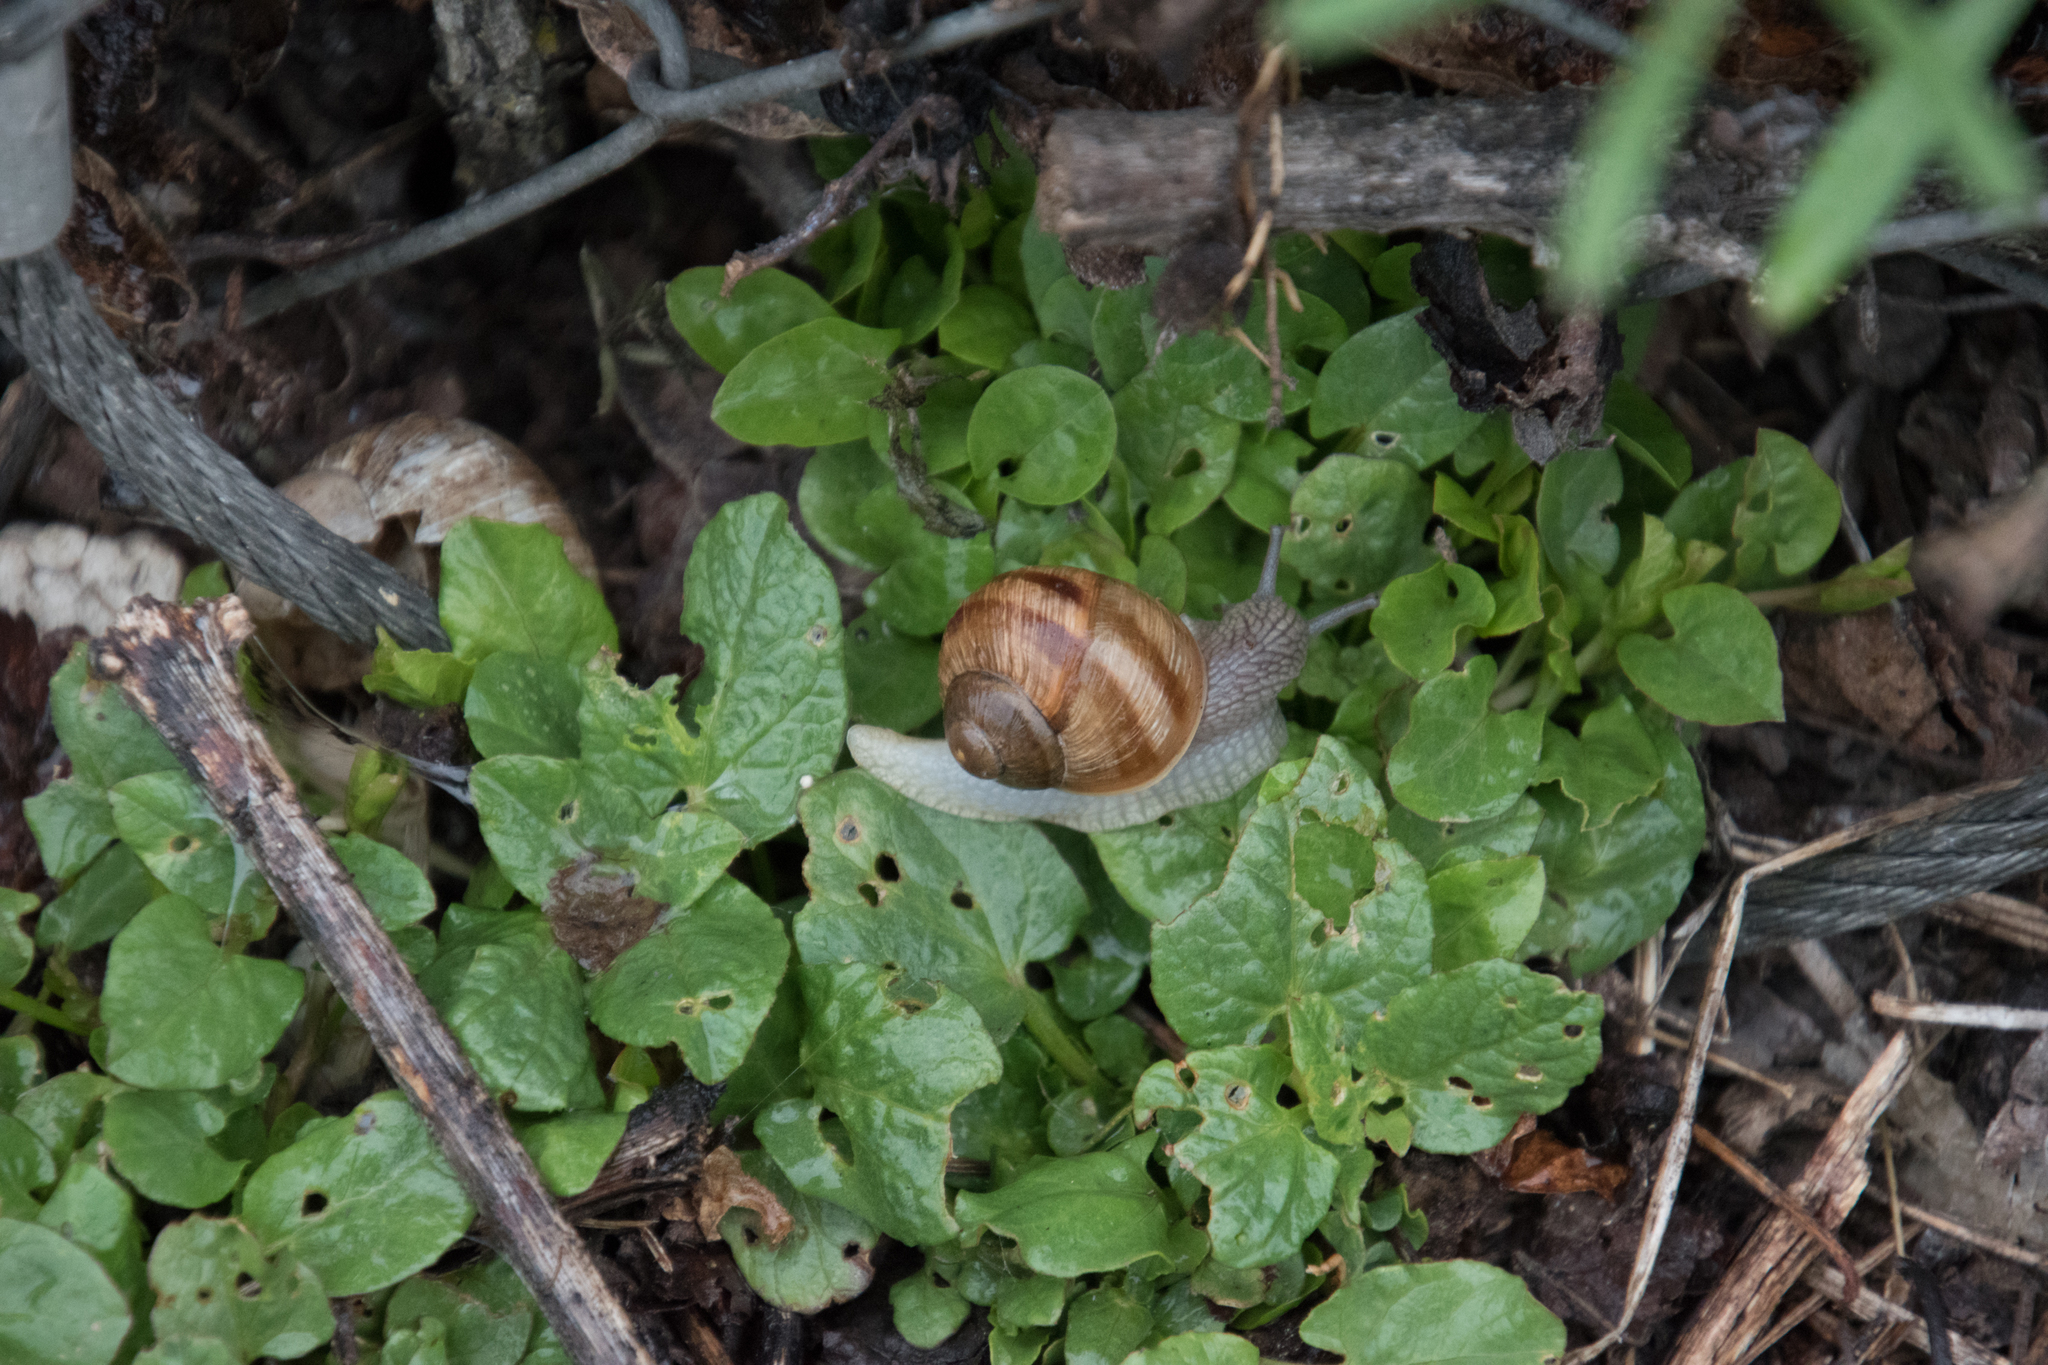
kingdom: Animalia
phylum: Mollusca
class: Gastropoda
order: Stylommatophora
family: Helicidae
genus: Helix
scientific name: Helix pomatia
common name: Roman snail
